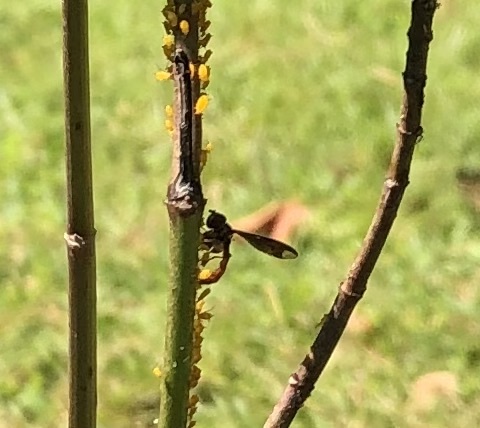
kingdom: Animalia
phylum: Arthropoda
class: Insecta
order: Diptera
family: Syrphidae
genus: Ocyptamus
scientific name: Ocyptamus fuscipennis
